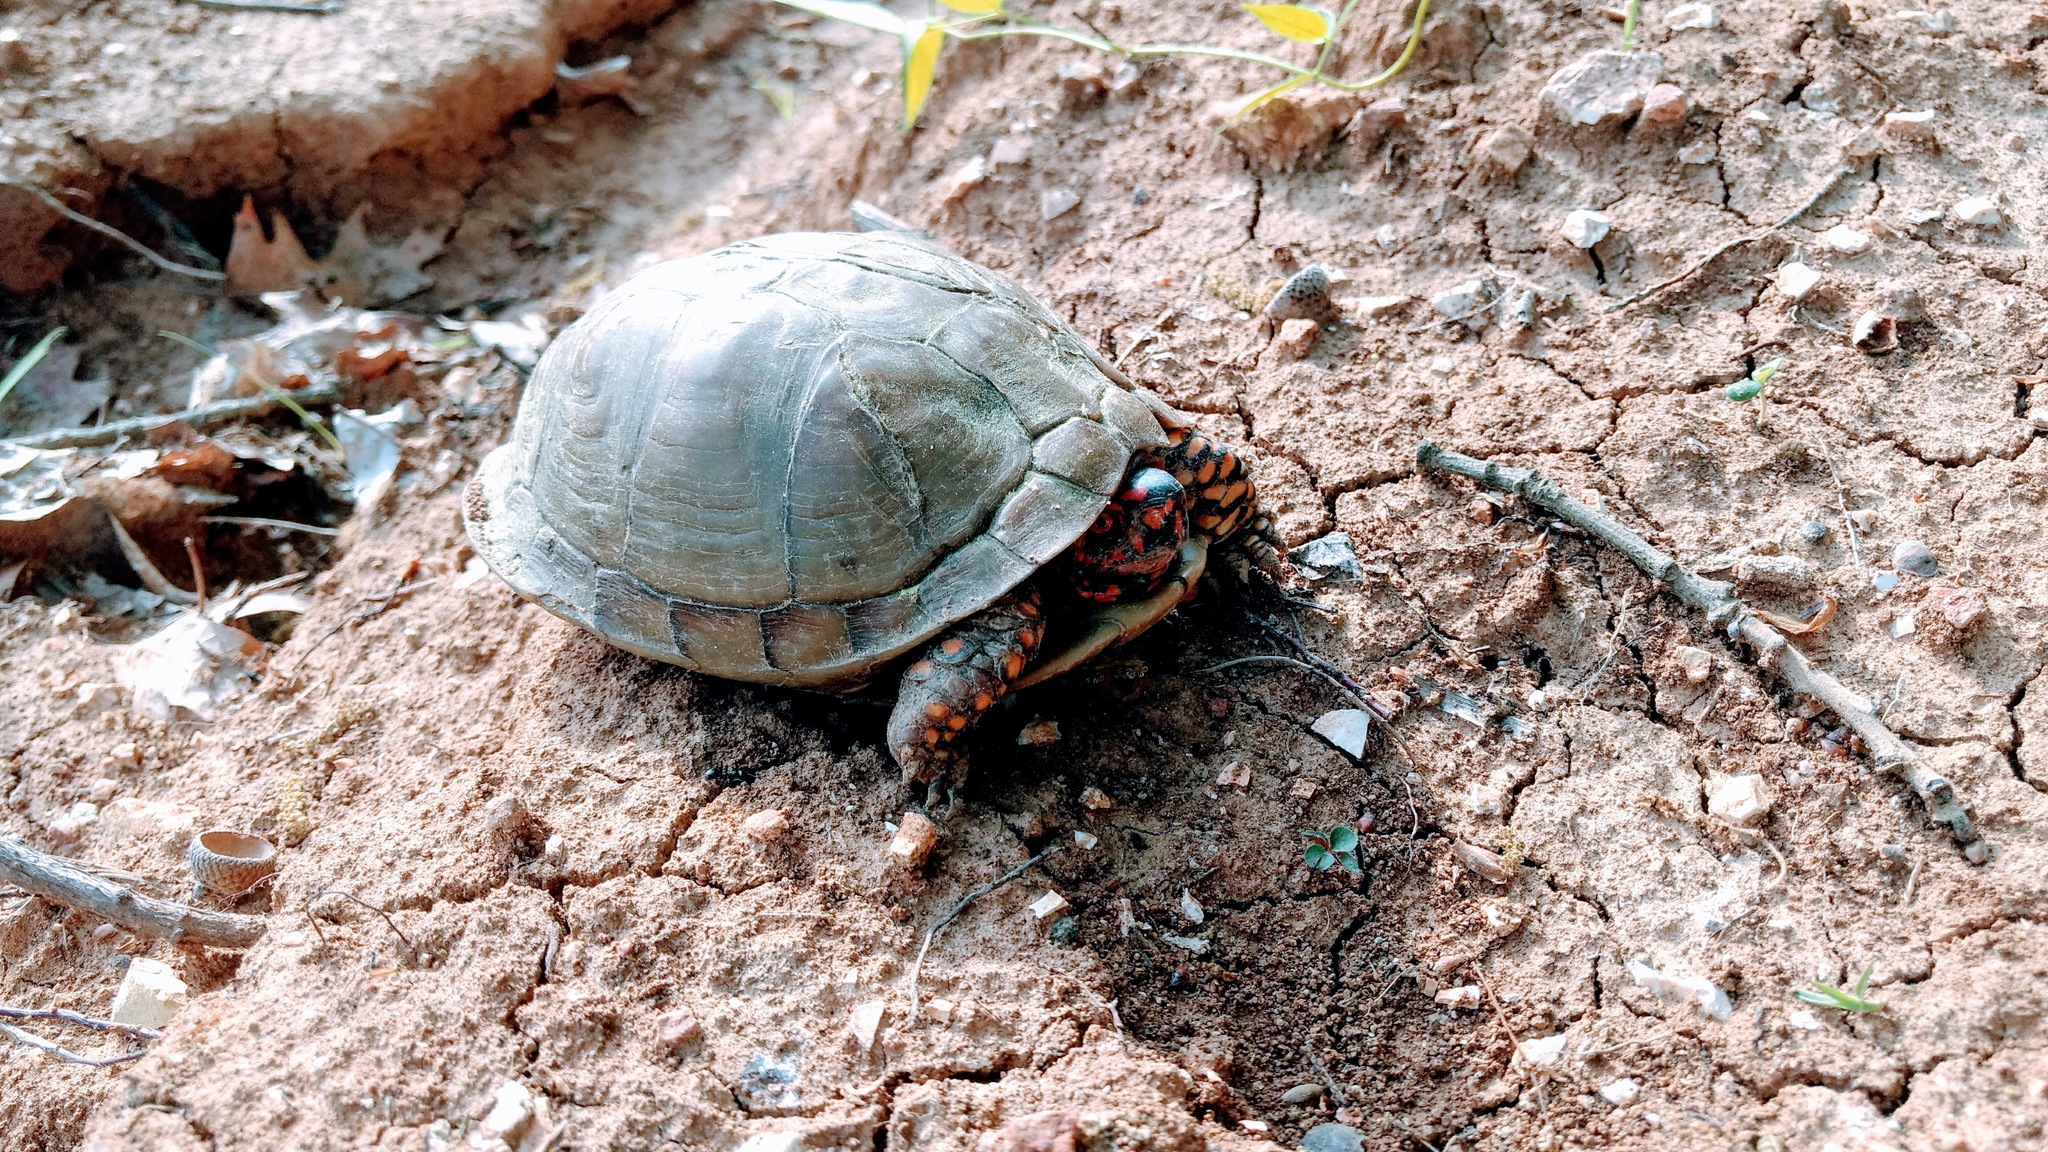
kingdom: Animalia
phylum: Chordata
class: Testudines
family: Emydidae
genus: Terrapene
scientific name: Terrapene carolina
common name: Common box turtle
